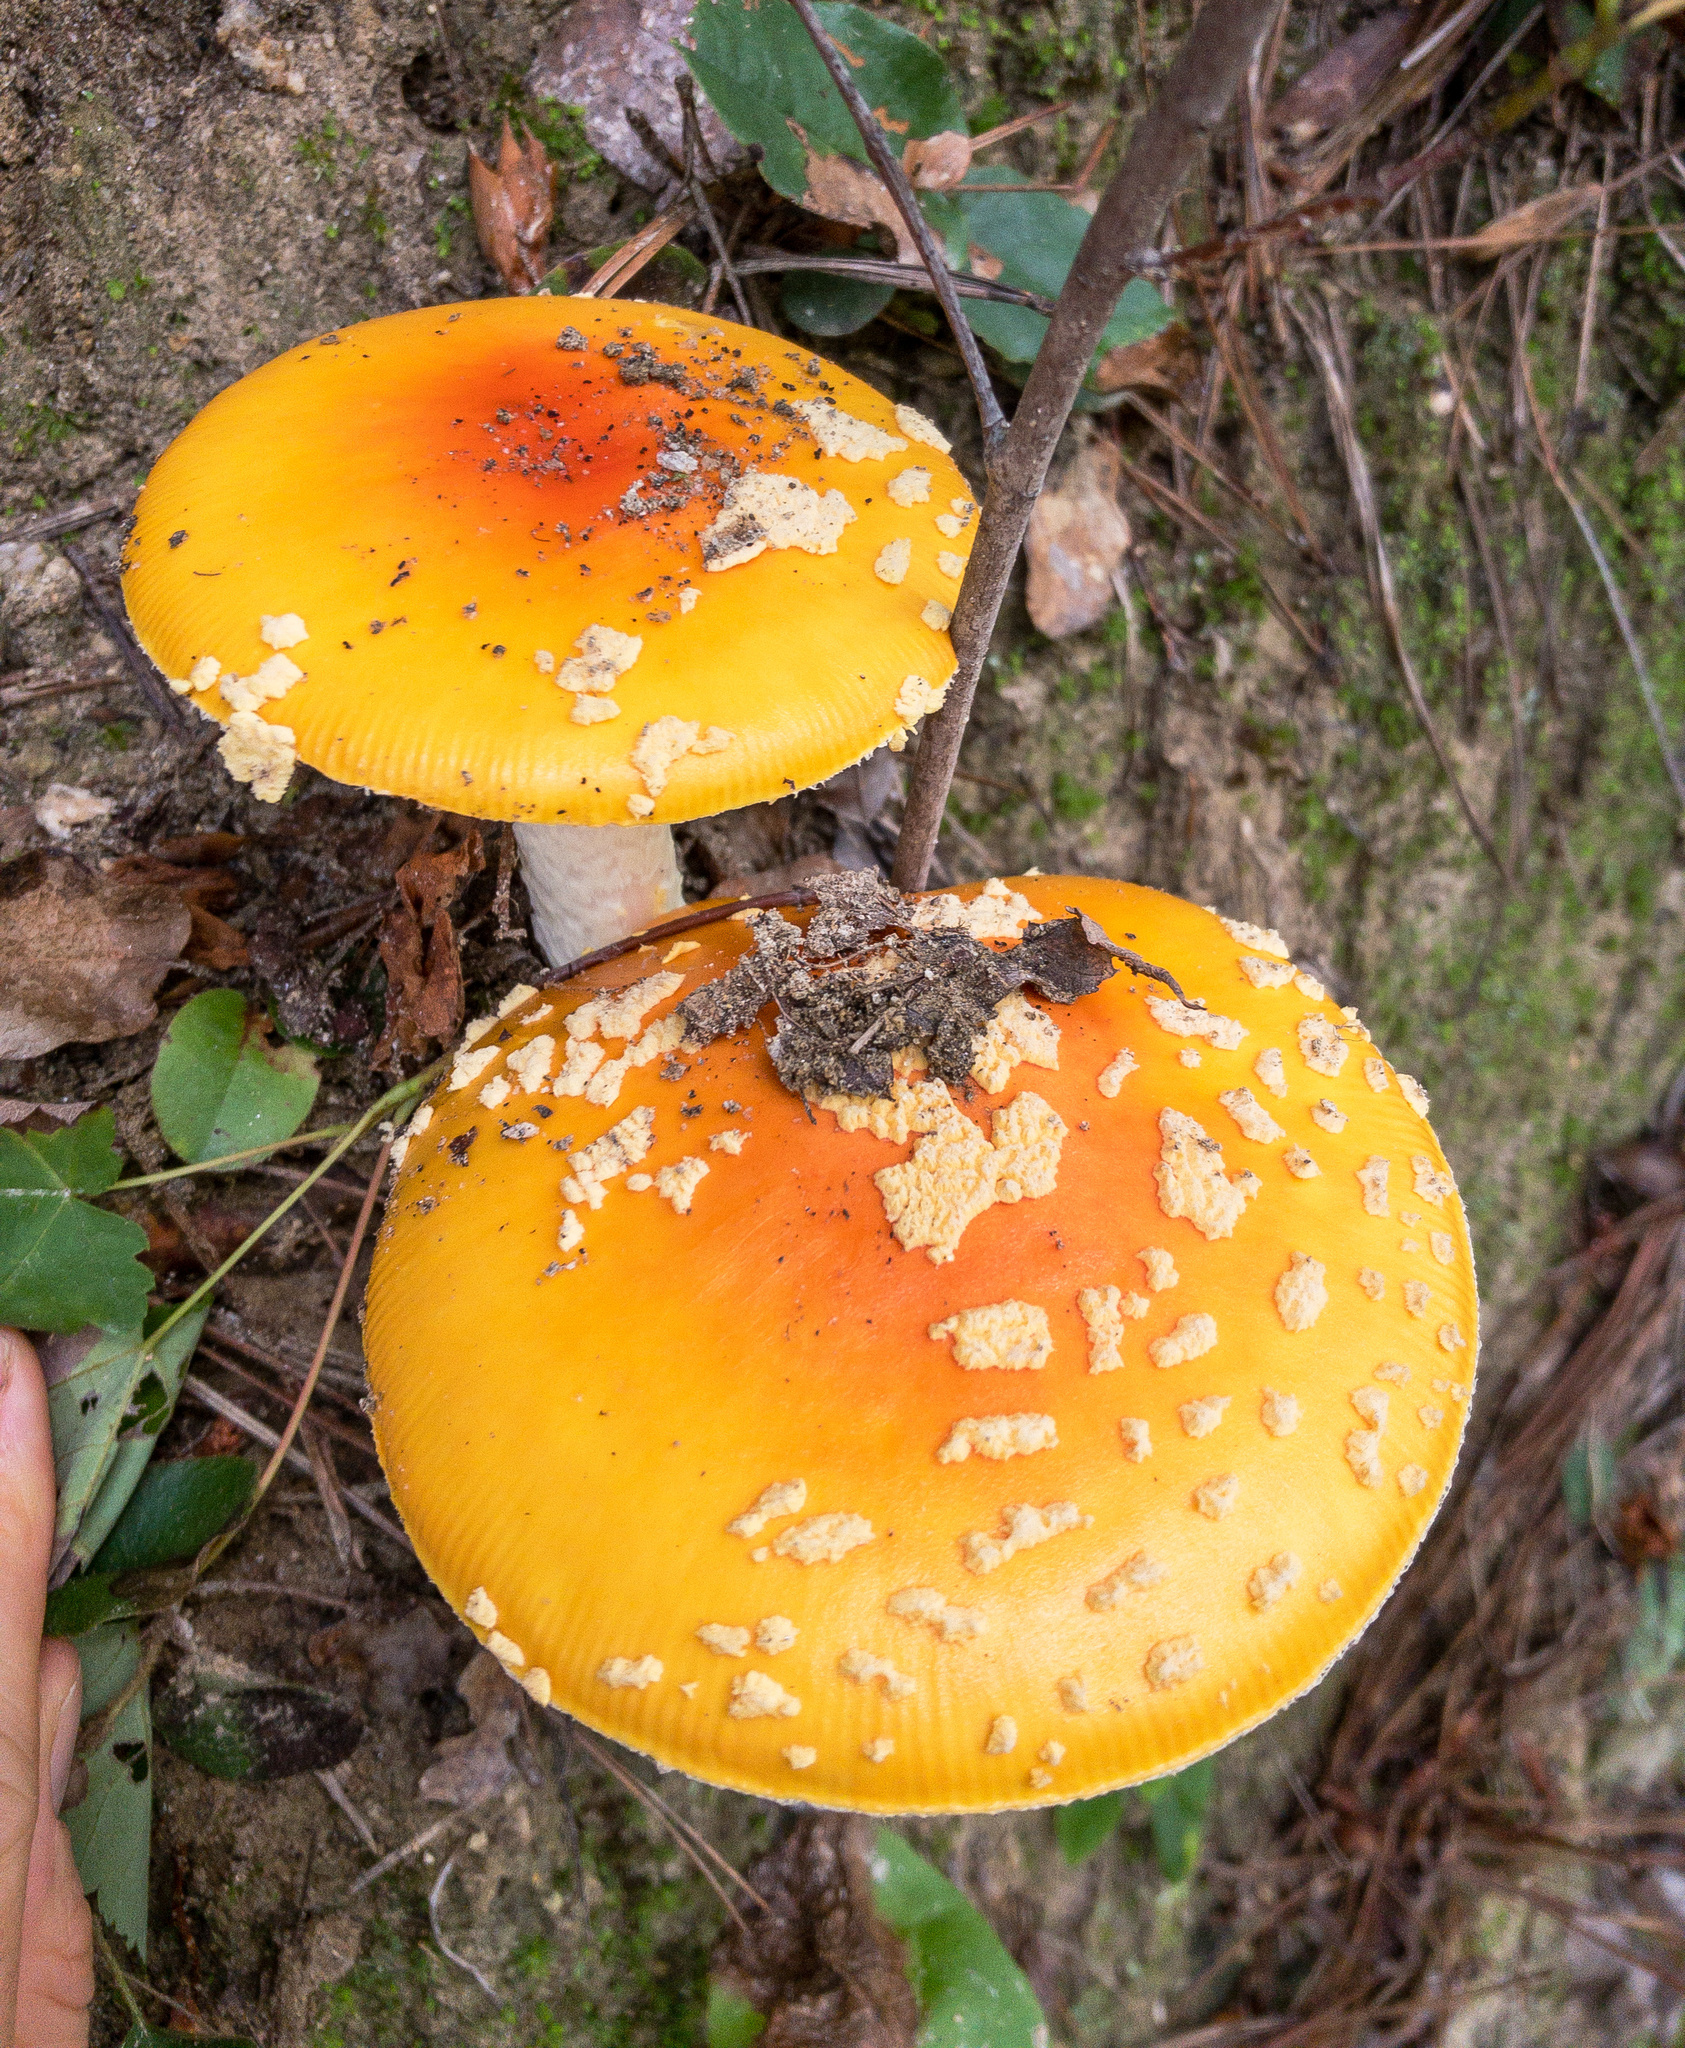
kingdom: Fungi
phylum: Basidiomycota
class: Agaricomycetes
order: Agaricales
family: Amanitaceae
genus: Amanita
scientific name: Amanita persicina
